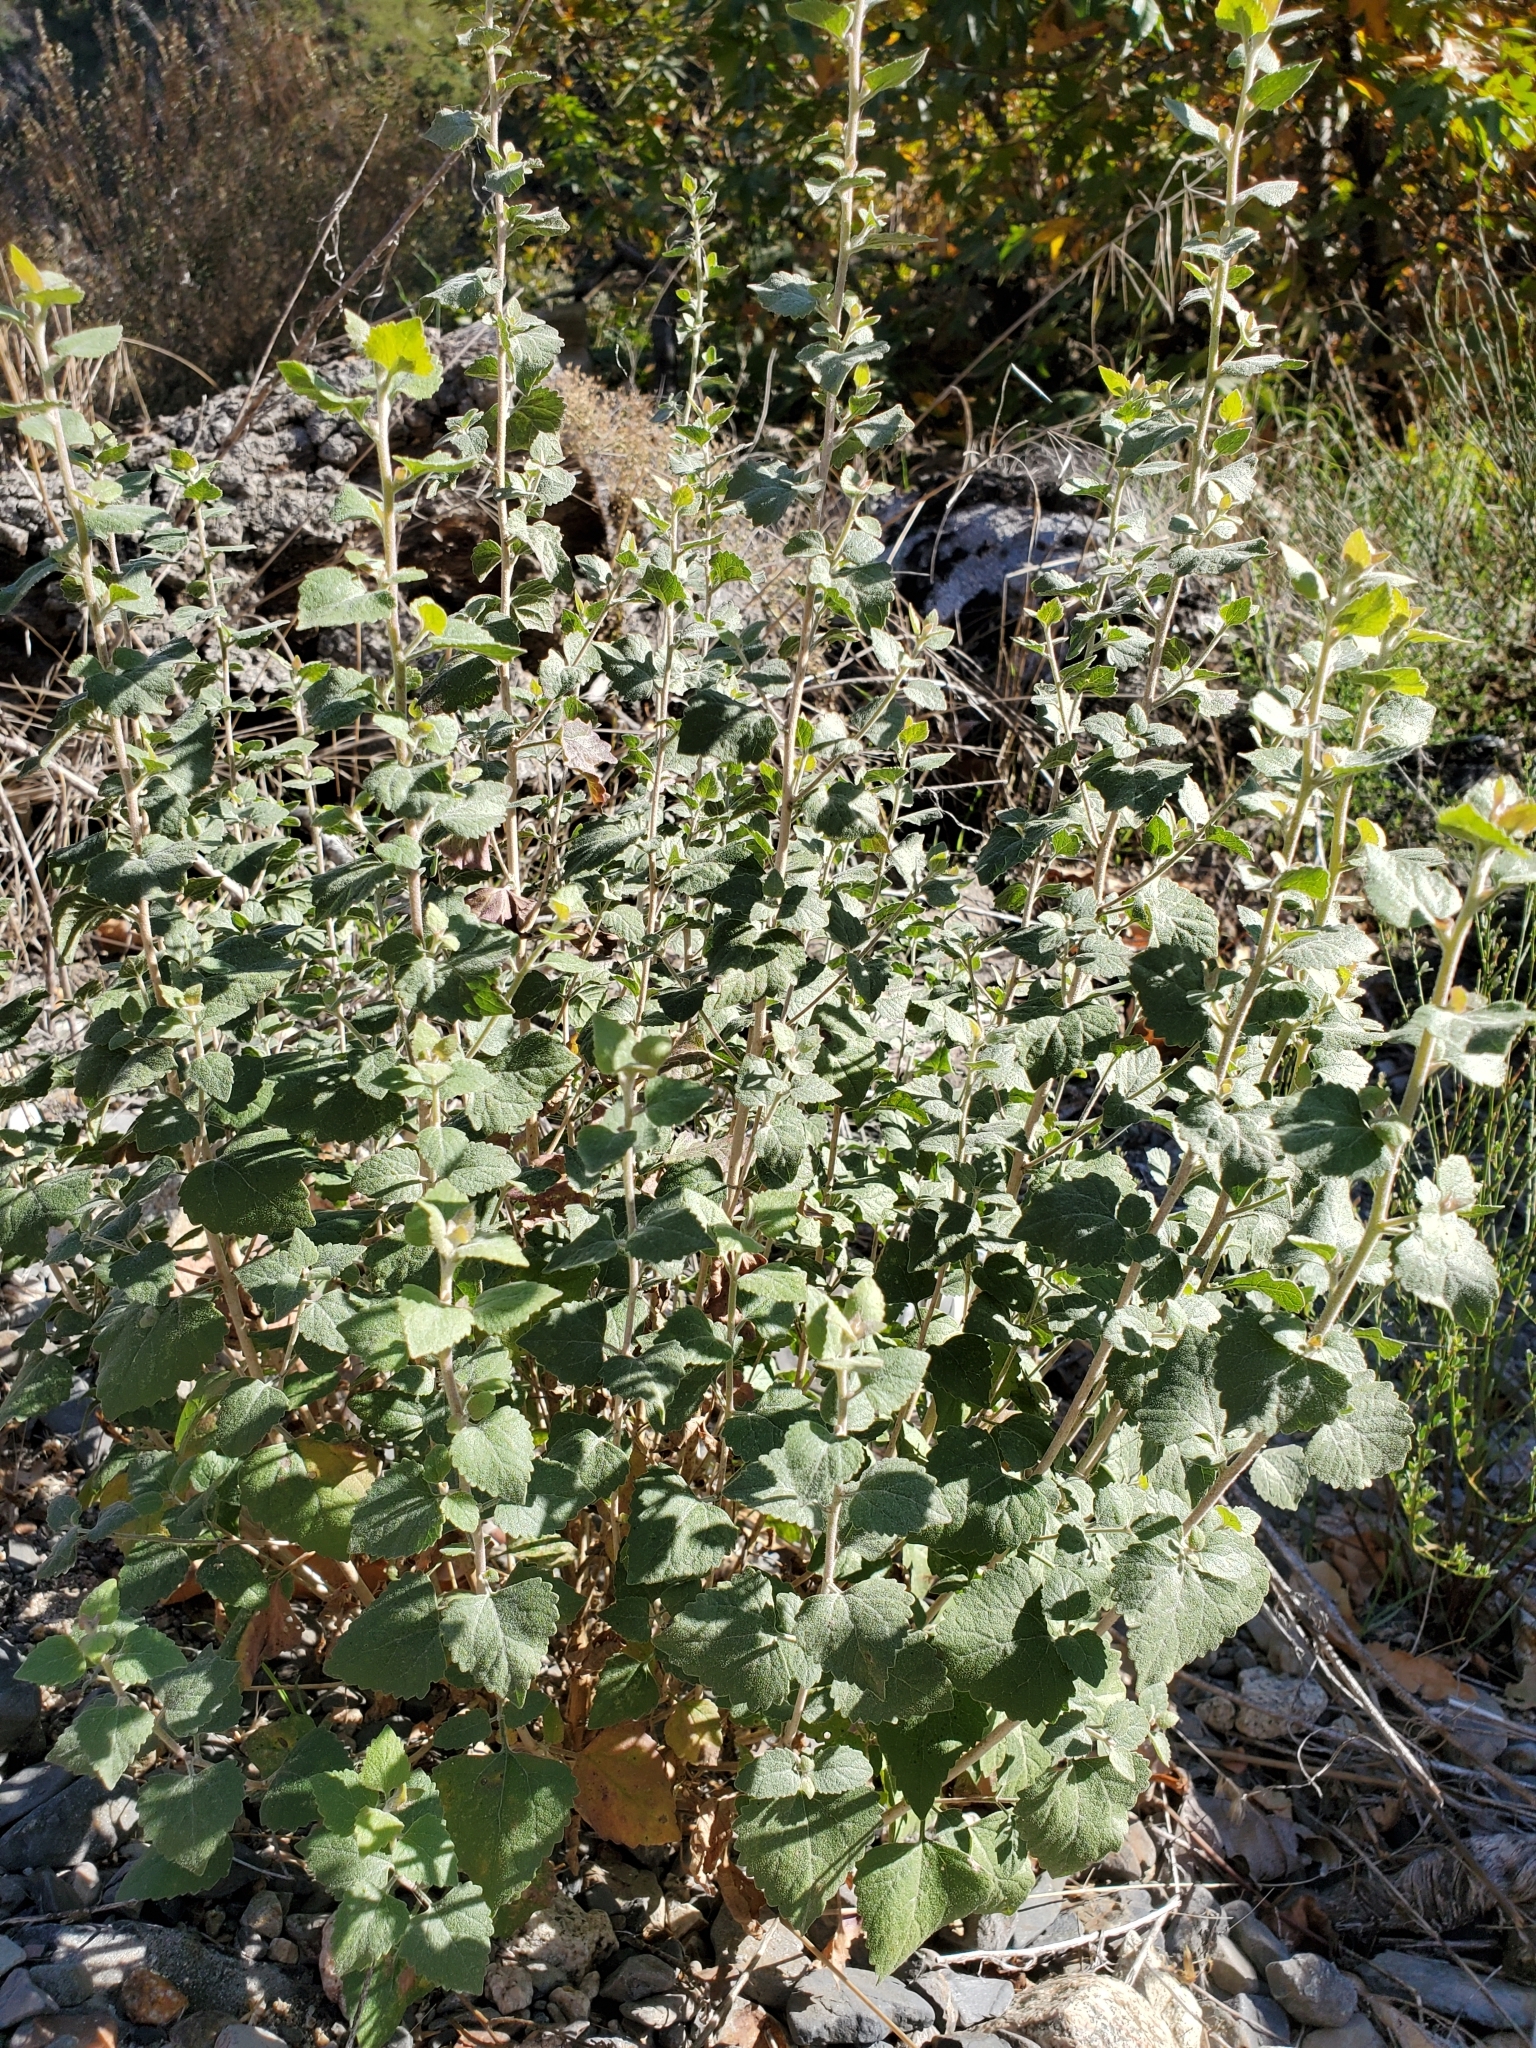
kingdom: Plantae
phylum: Tracheophyta
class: Magnoliopsida
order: Asterales
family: Asteraceae
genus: Brickellia
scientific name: Brickellia californica
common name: California brickellbush
